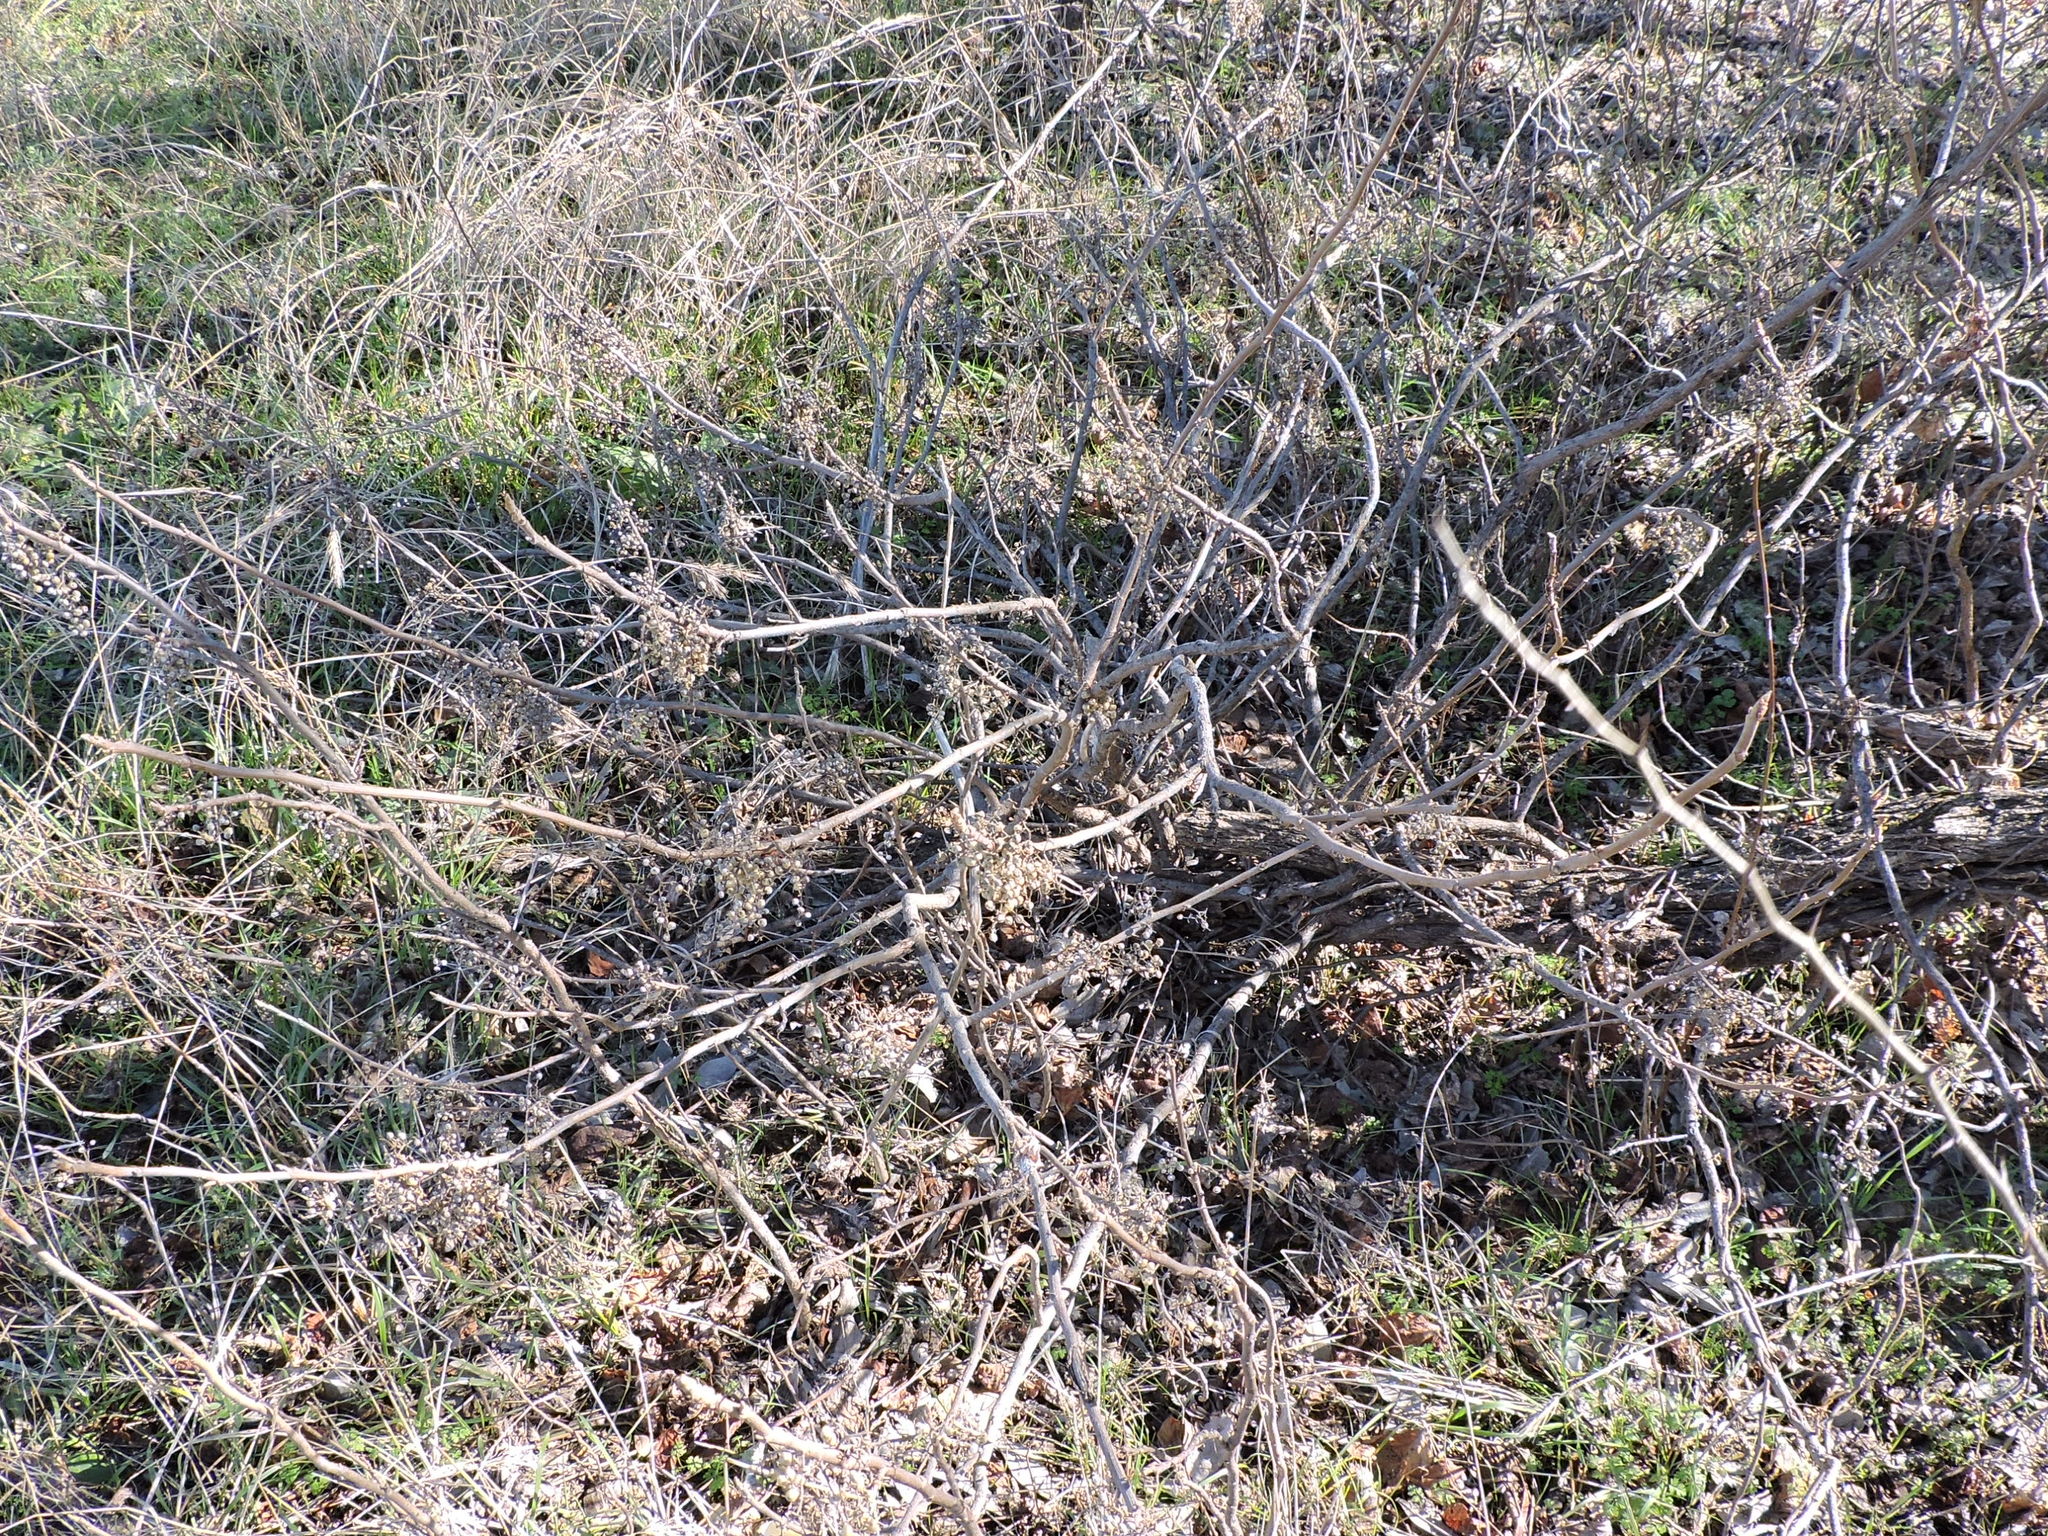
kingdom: Plantae
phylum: Tracheophyta
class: Magnoliopsida
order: Sapindales
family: Anacardiaceae
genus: Toxicodendron
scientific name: Toxicodendron radicans
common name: Poison ivy
